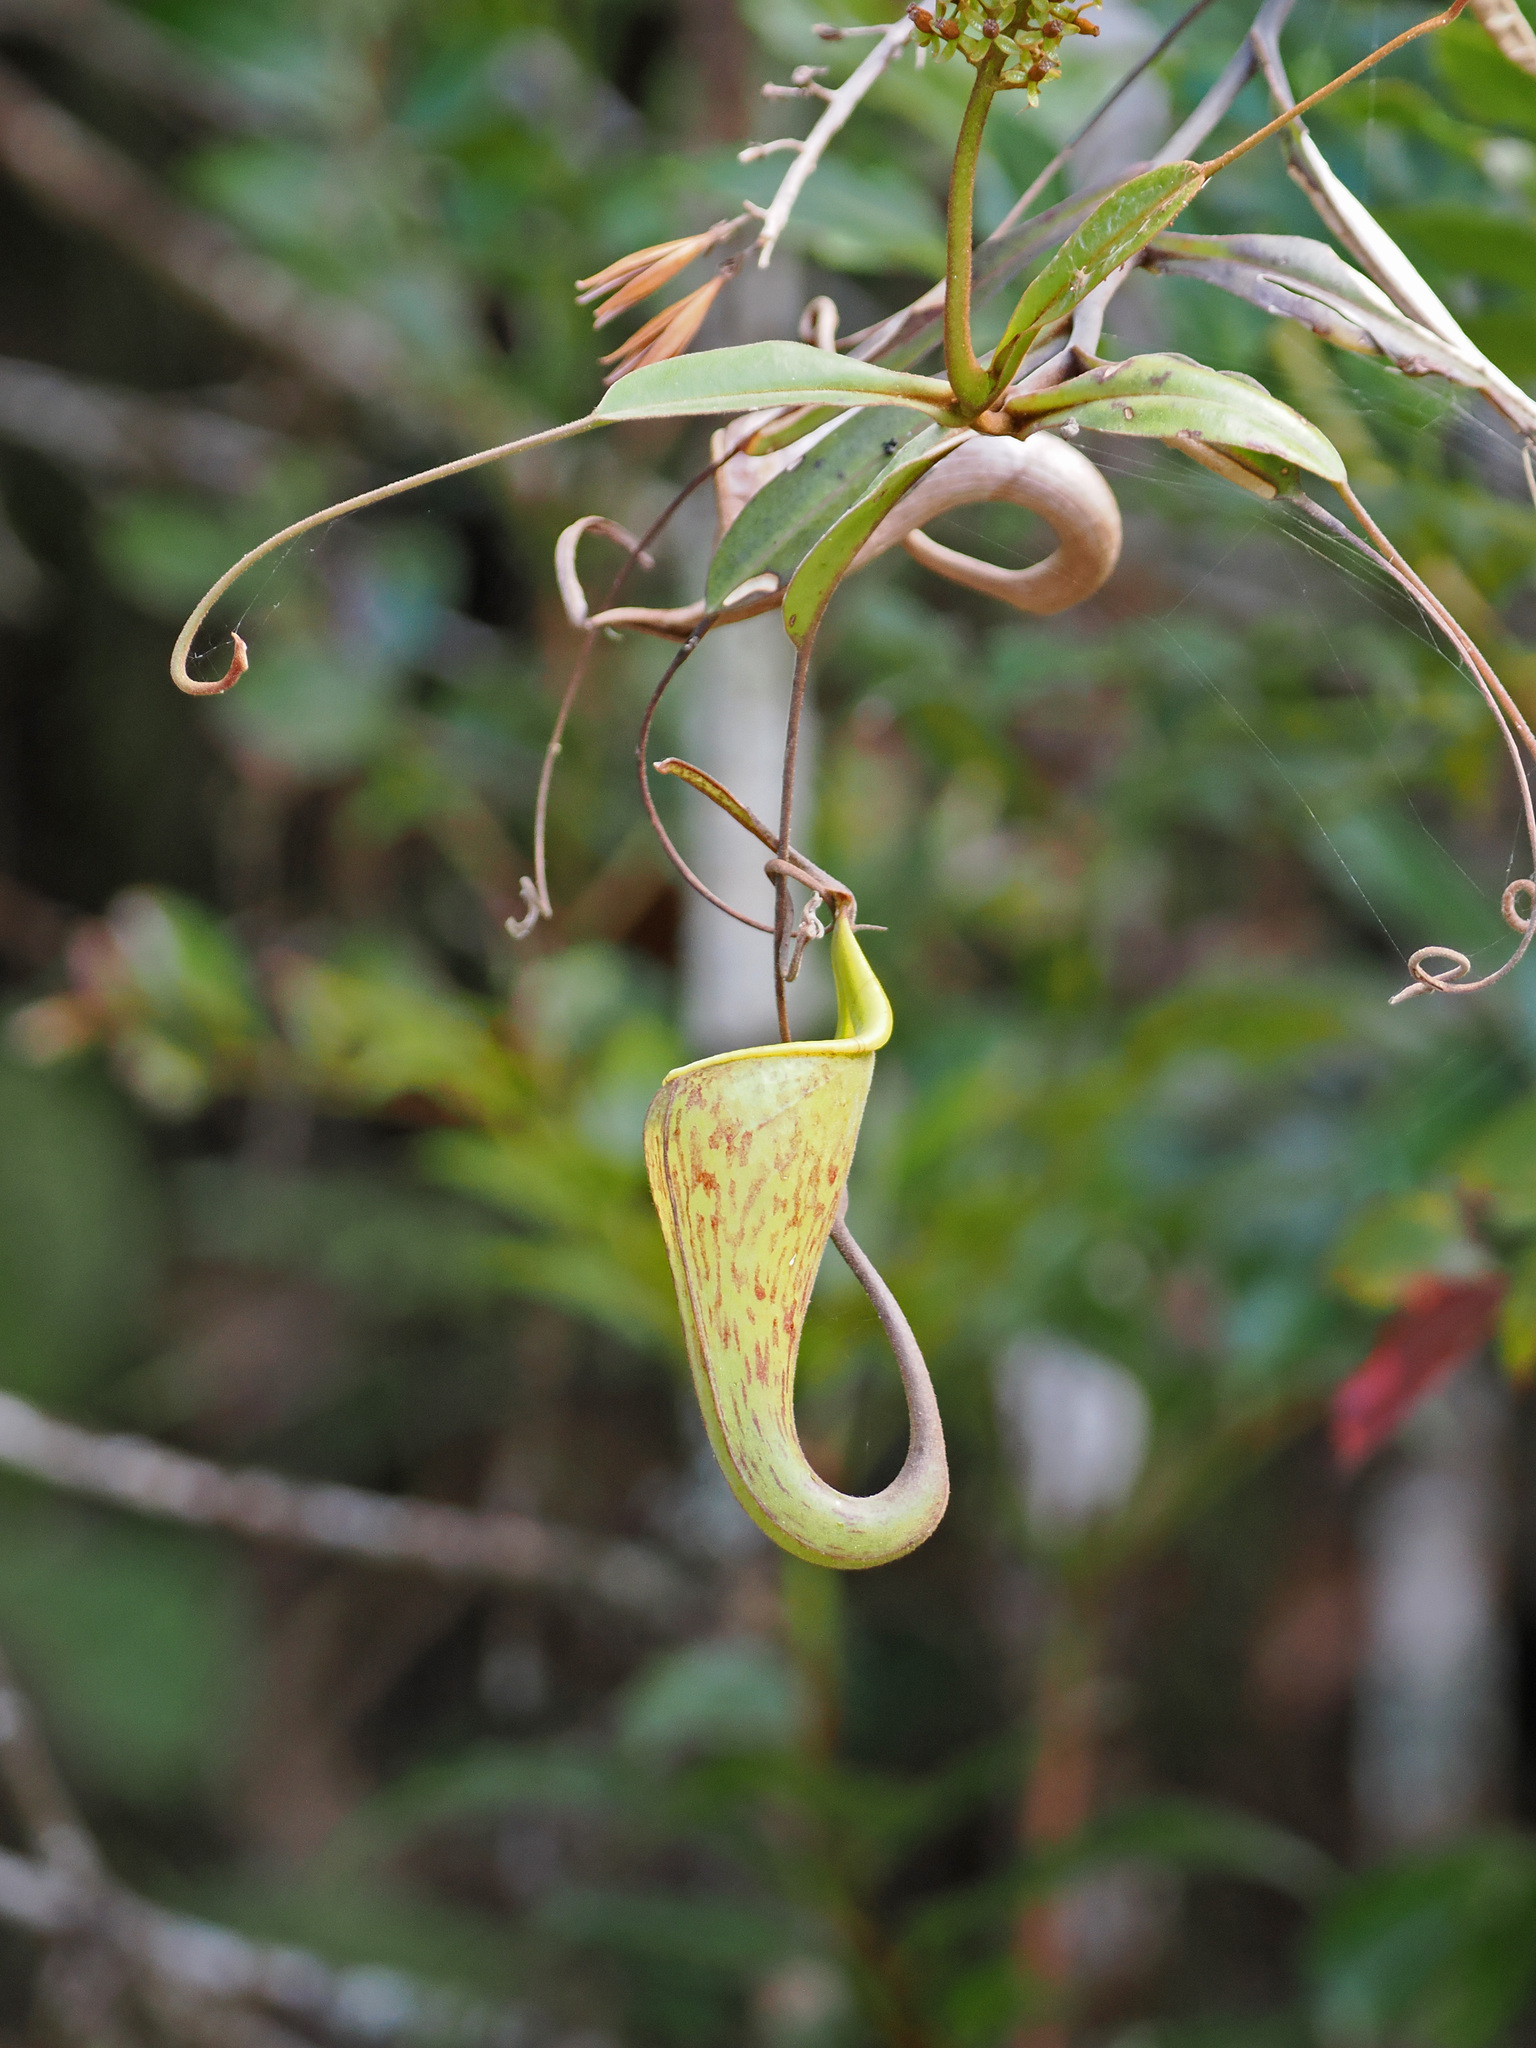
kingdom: Plantae
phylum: Tracheophyta
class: Magnoliopsida
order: Caryophyllales
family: Nepenthaceae
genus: Nepenthes
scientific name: Nepenthes fusca
